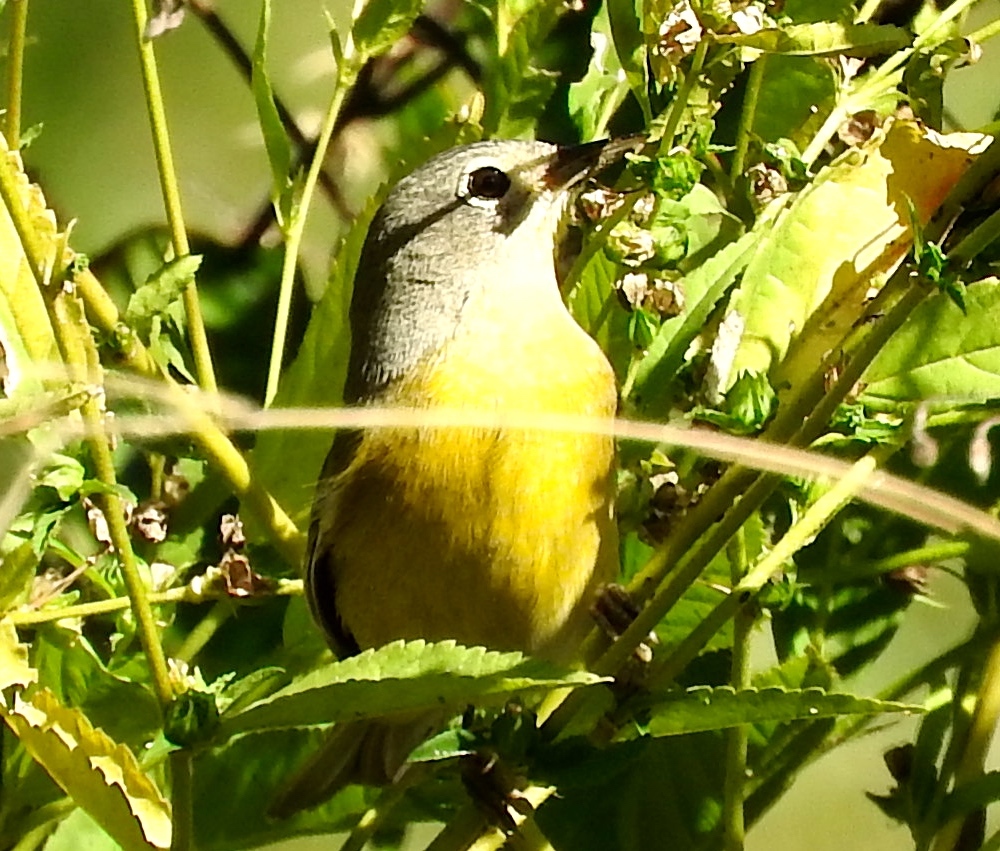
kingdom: Animalia
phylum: Chordata
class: Aves
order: Passeriformes
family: Parulidae
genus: Leiothlypis
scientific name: Leiothlypis ruficapilla
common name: Nashville warbler
